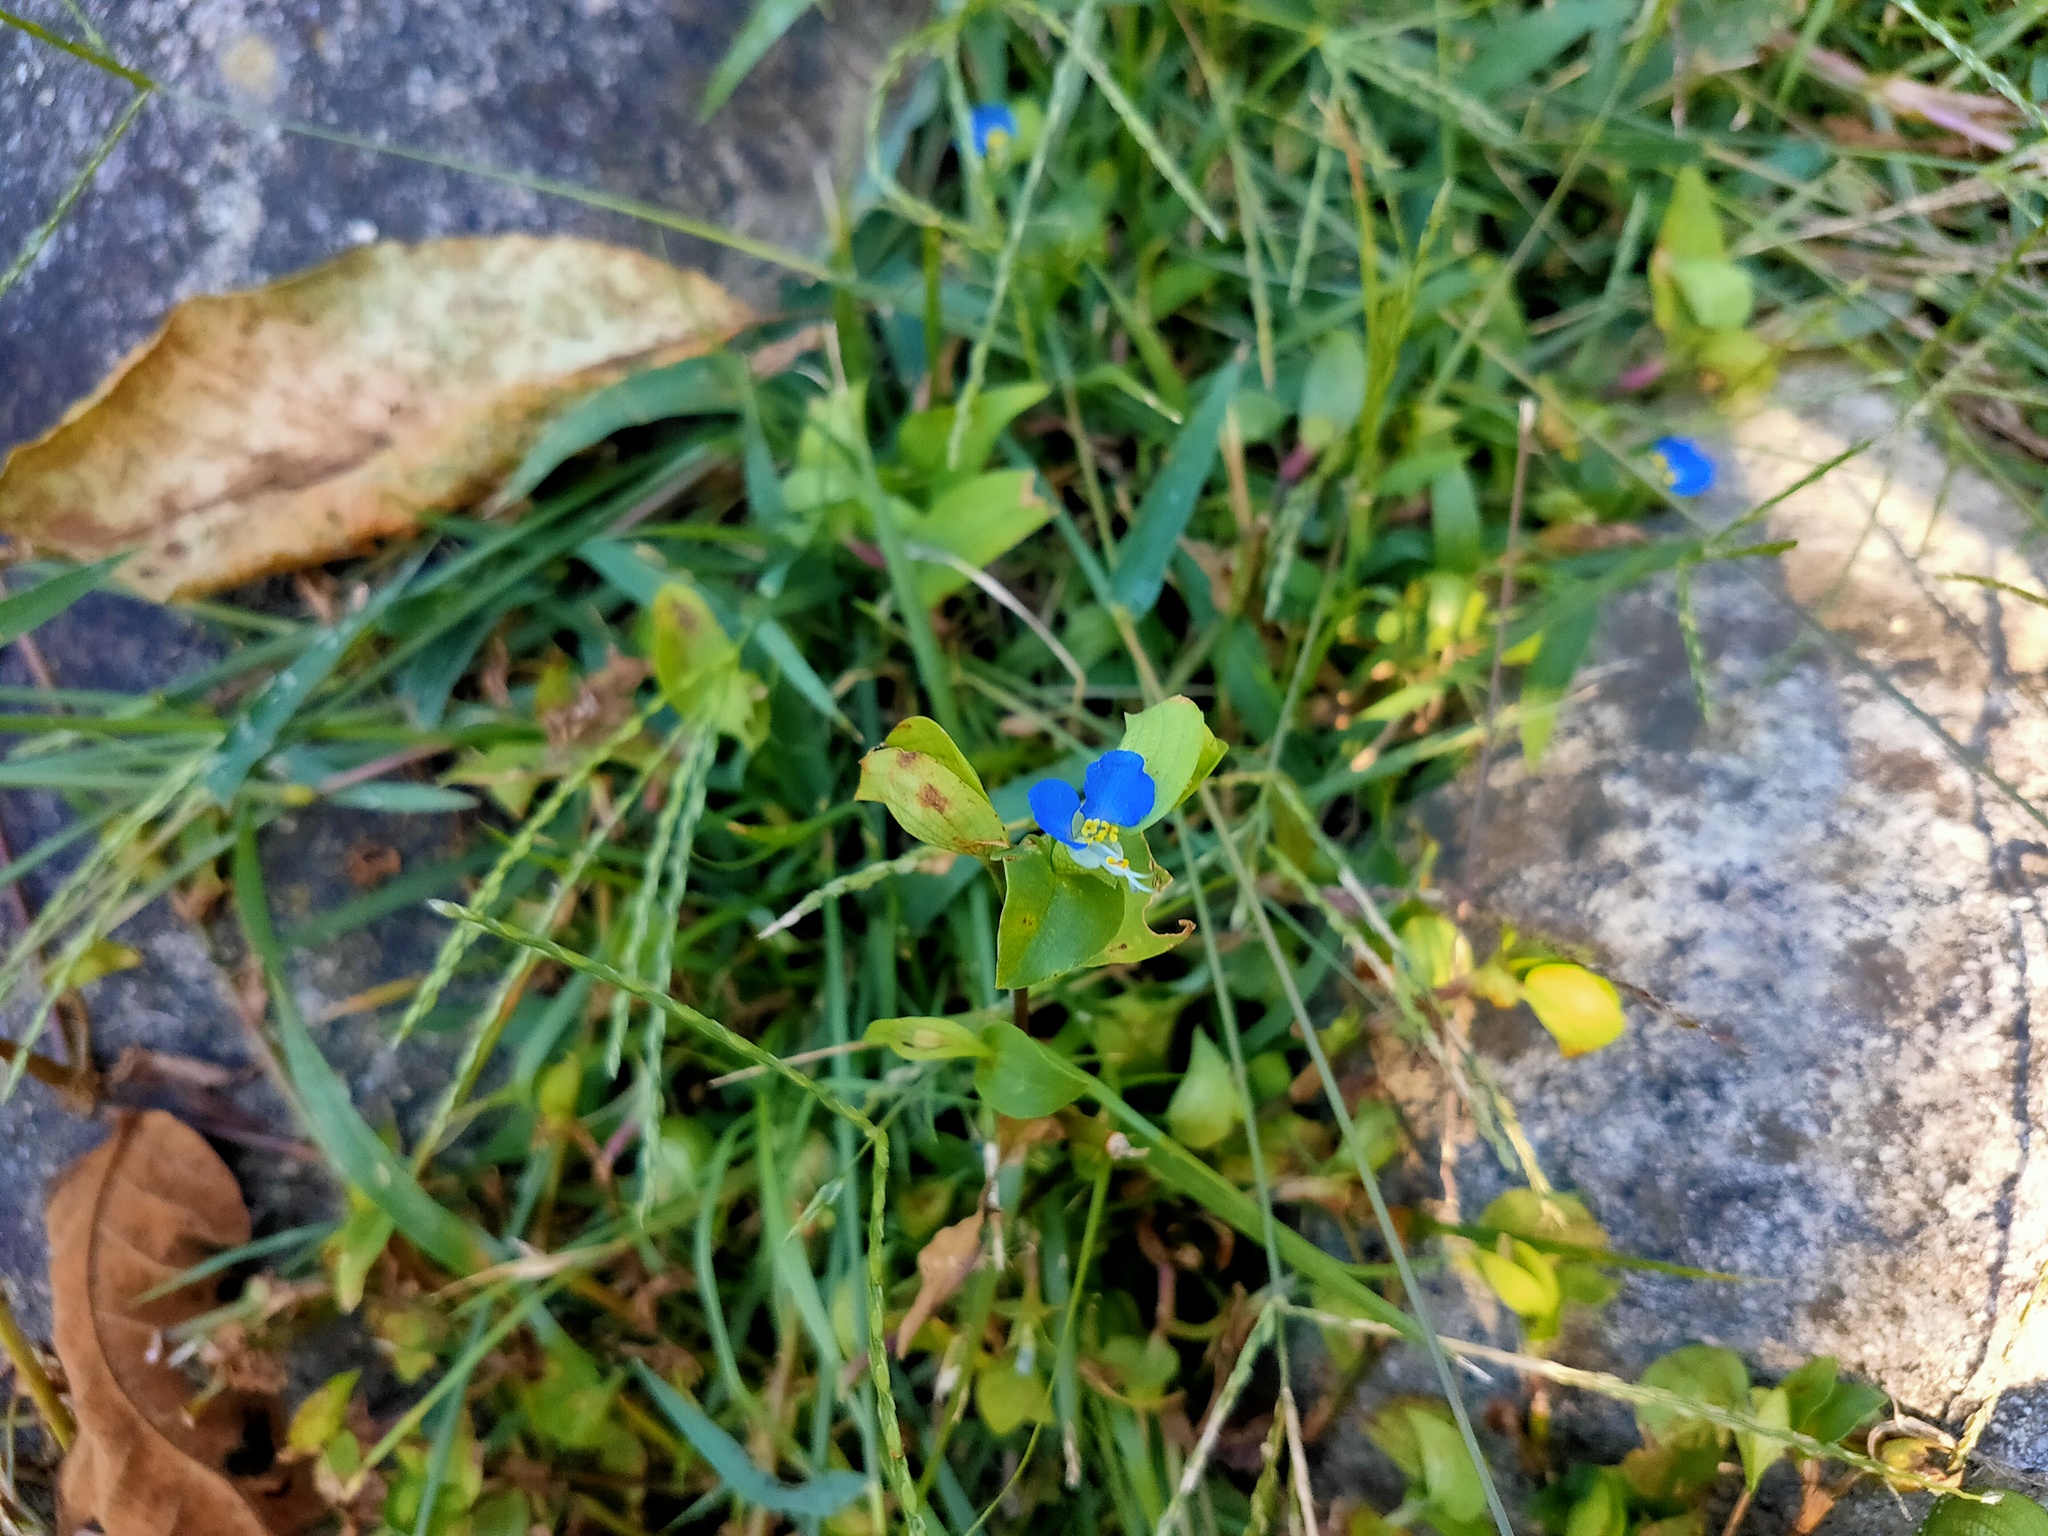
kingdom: Plantae
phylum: Tracheophyta
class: Liliopsida
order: Commelinales
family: Commelinaceae
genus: Commelina
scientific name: Commelina communis
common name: Asiatic dayflower
